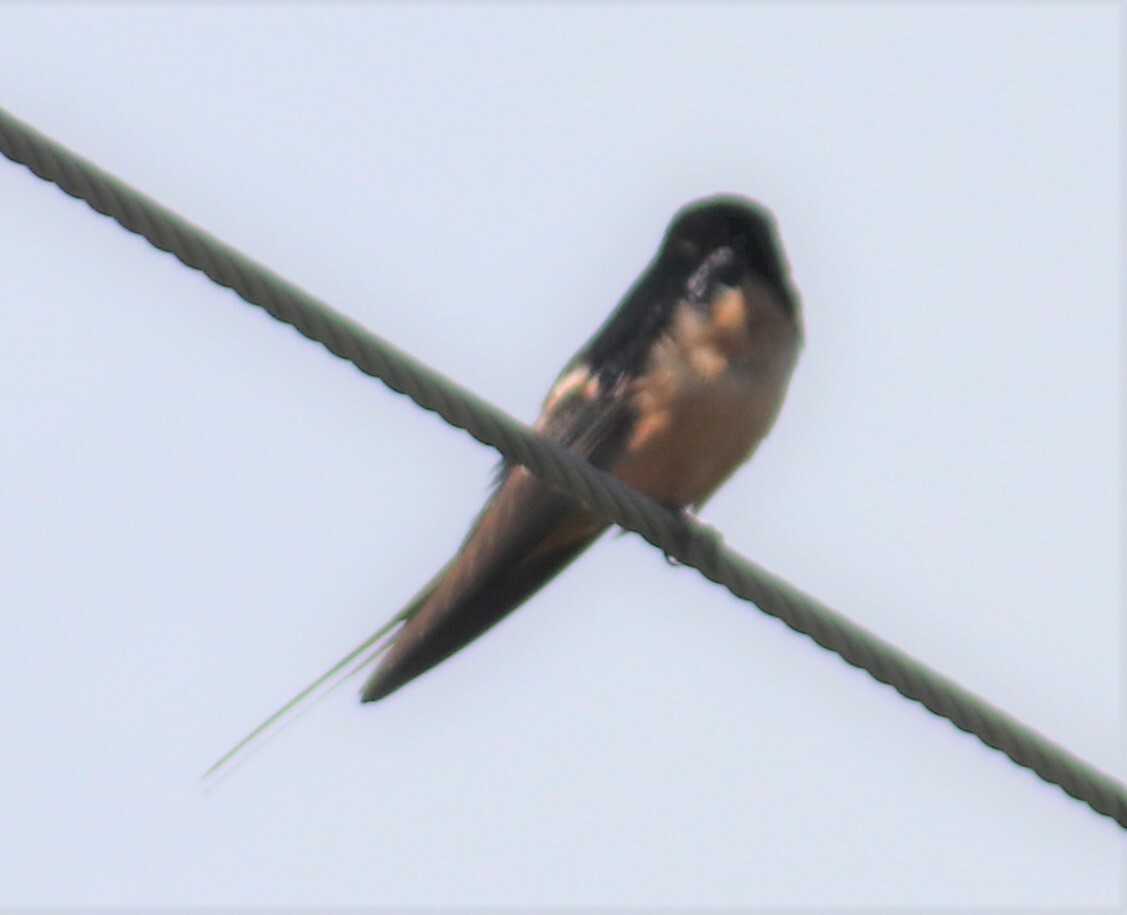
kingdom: Animalia
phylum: Chordata
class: Aves
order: Passeriformes
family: Hirundinidae
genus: Hirundo
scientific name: Hirundo rustica
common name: Barn swallow
